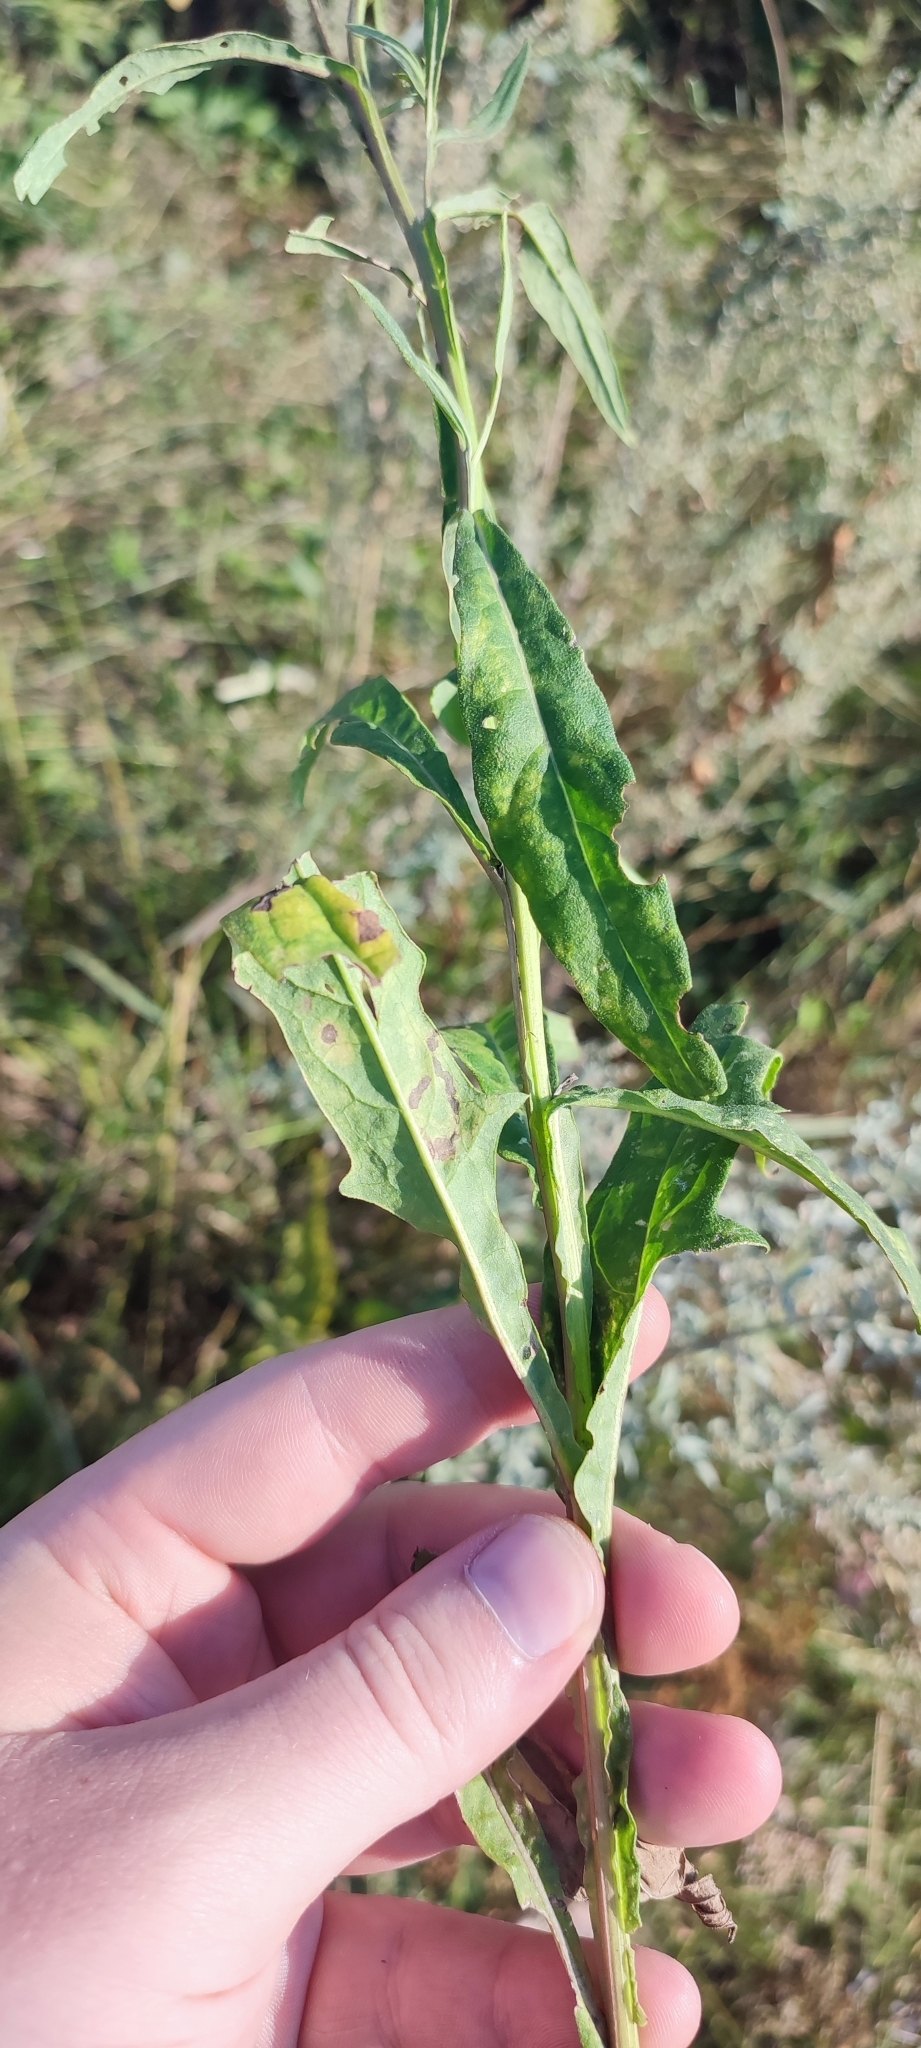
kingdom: Plantae
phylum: Tracheophyta
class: Magnoliopsida
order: Asterales
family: Asteraceae
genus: Saussurea
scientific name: Saussurea amara
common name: Alberta sawwort
